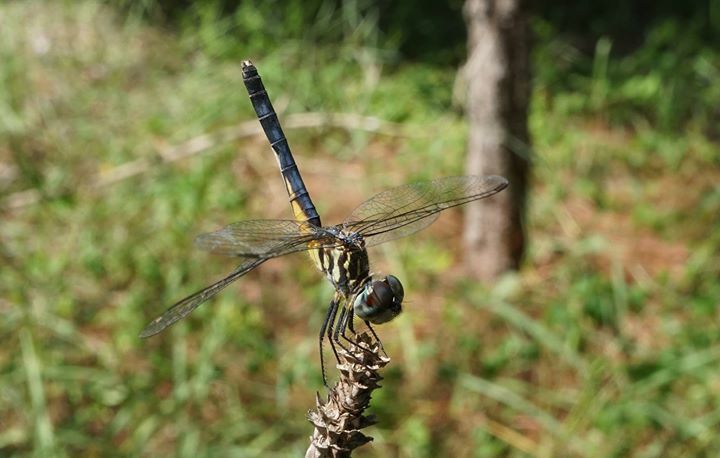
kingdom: Animalia
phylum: Arthropoda
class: Insecta
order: Odonata
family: Libellulidae
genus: Pachydiplax
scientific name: Pachydiplax longipennis
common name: Blue dasher
